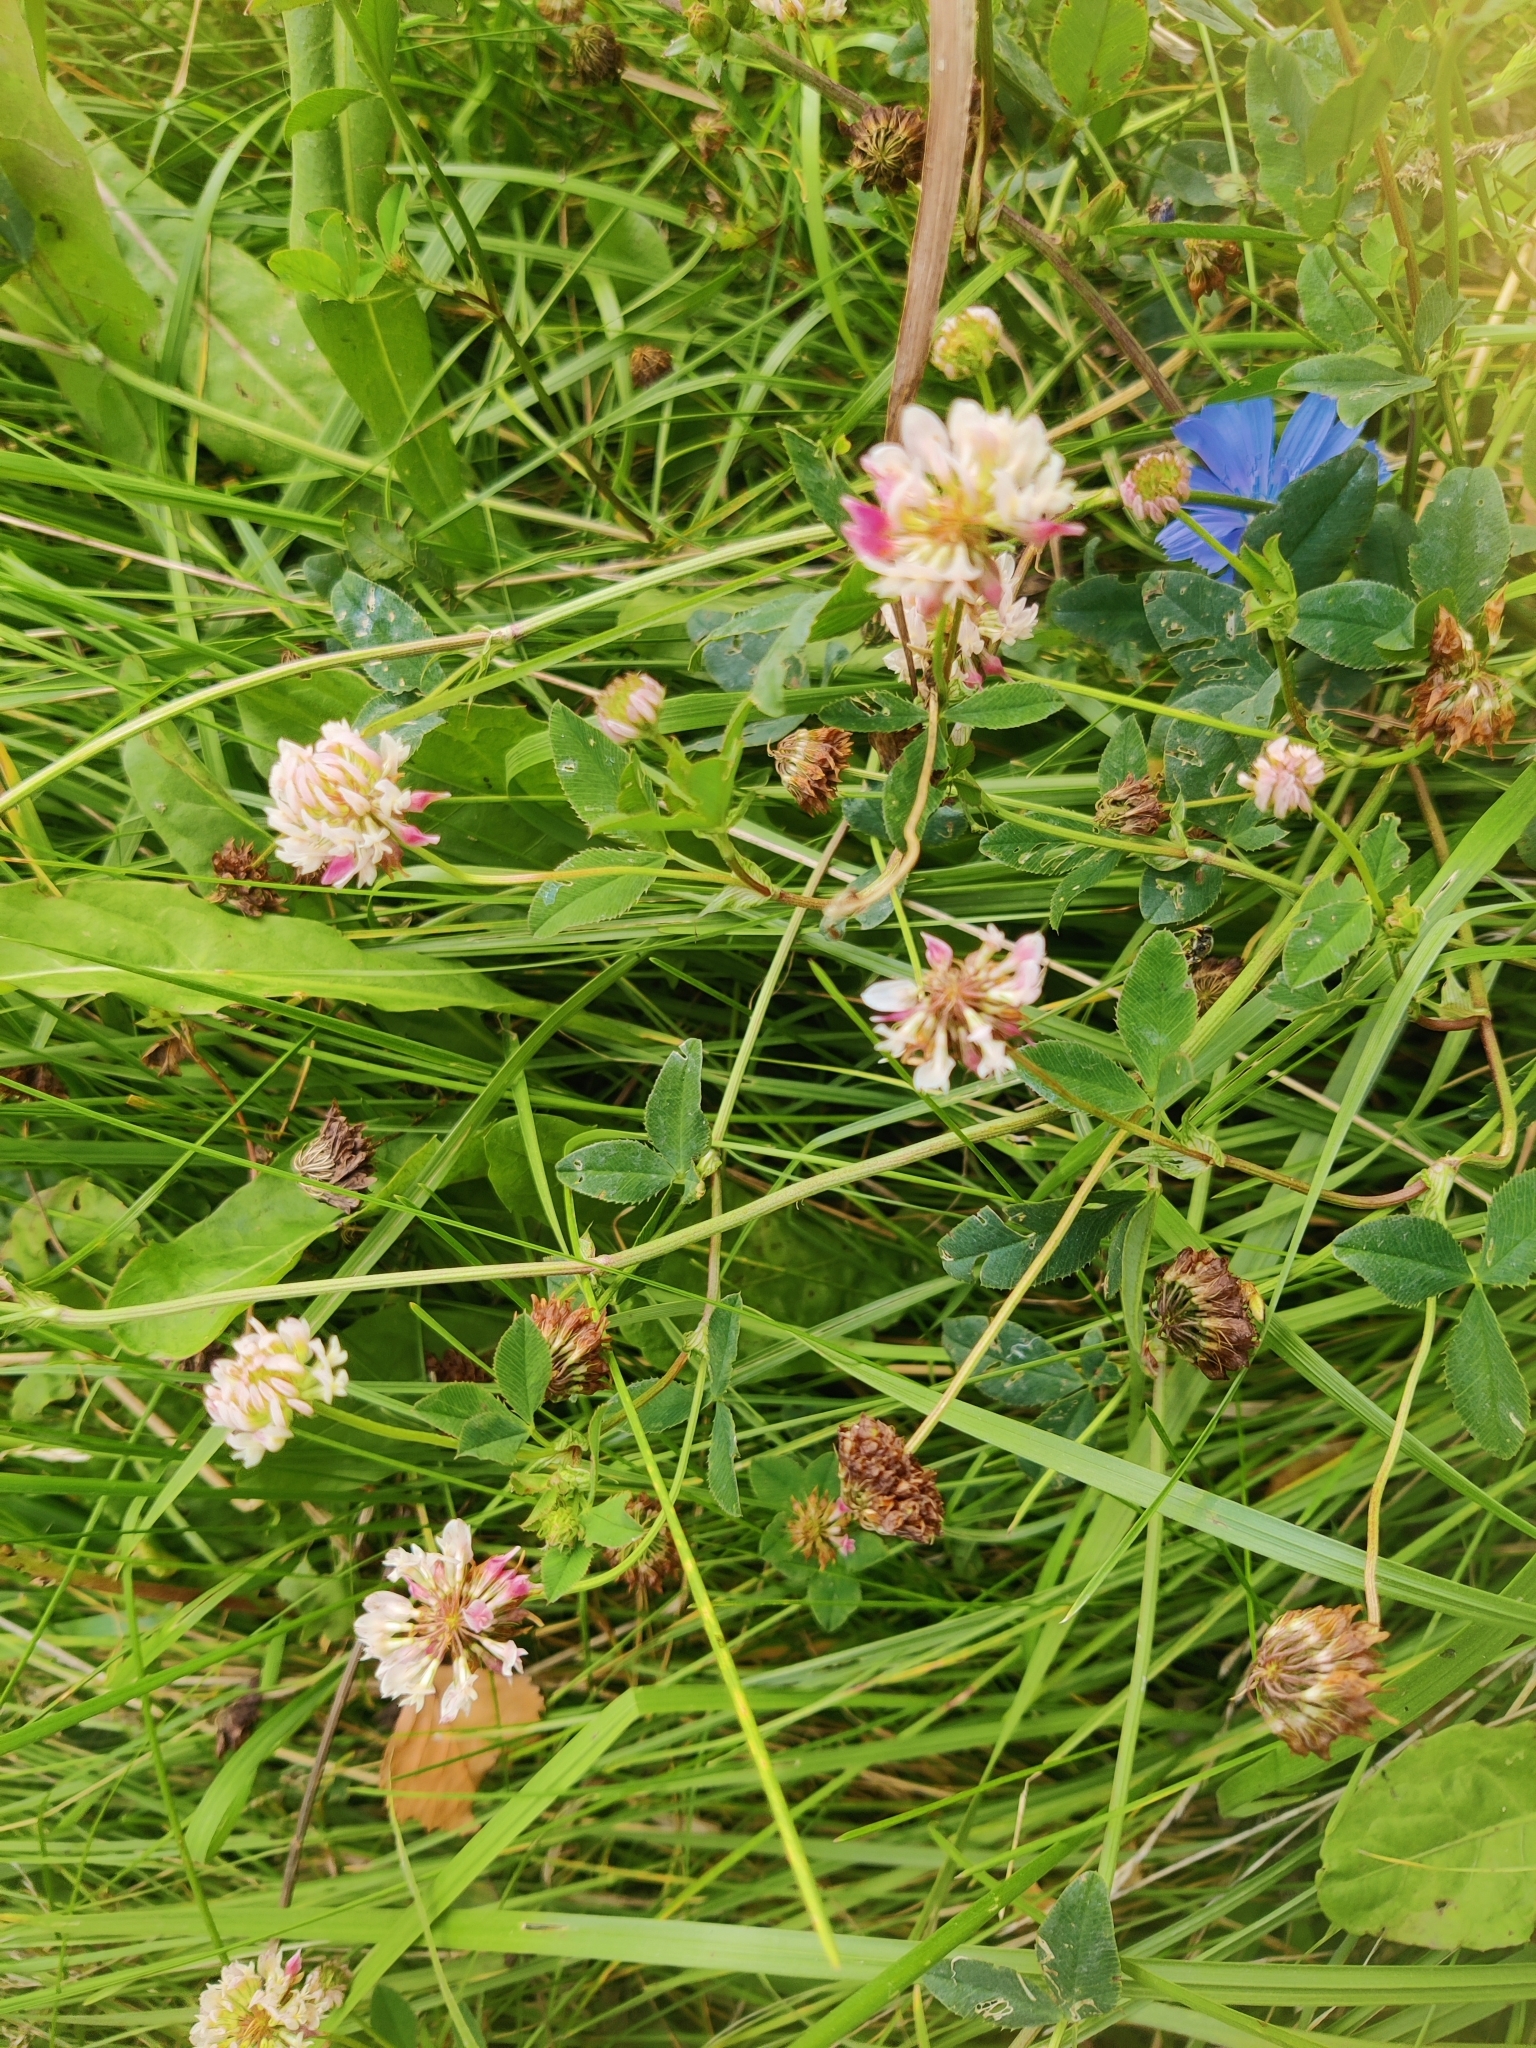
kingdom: Plantae
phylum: Tracheophyta
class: Magnoliopsida
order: Fabales
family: Fabaceae
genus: Trifolium
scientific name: Trifolium hybridum
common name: Alsike clover
